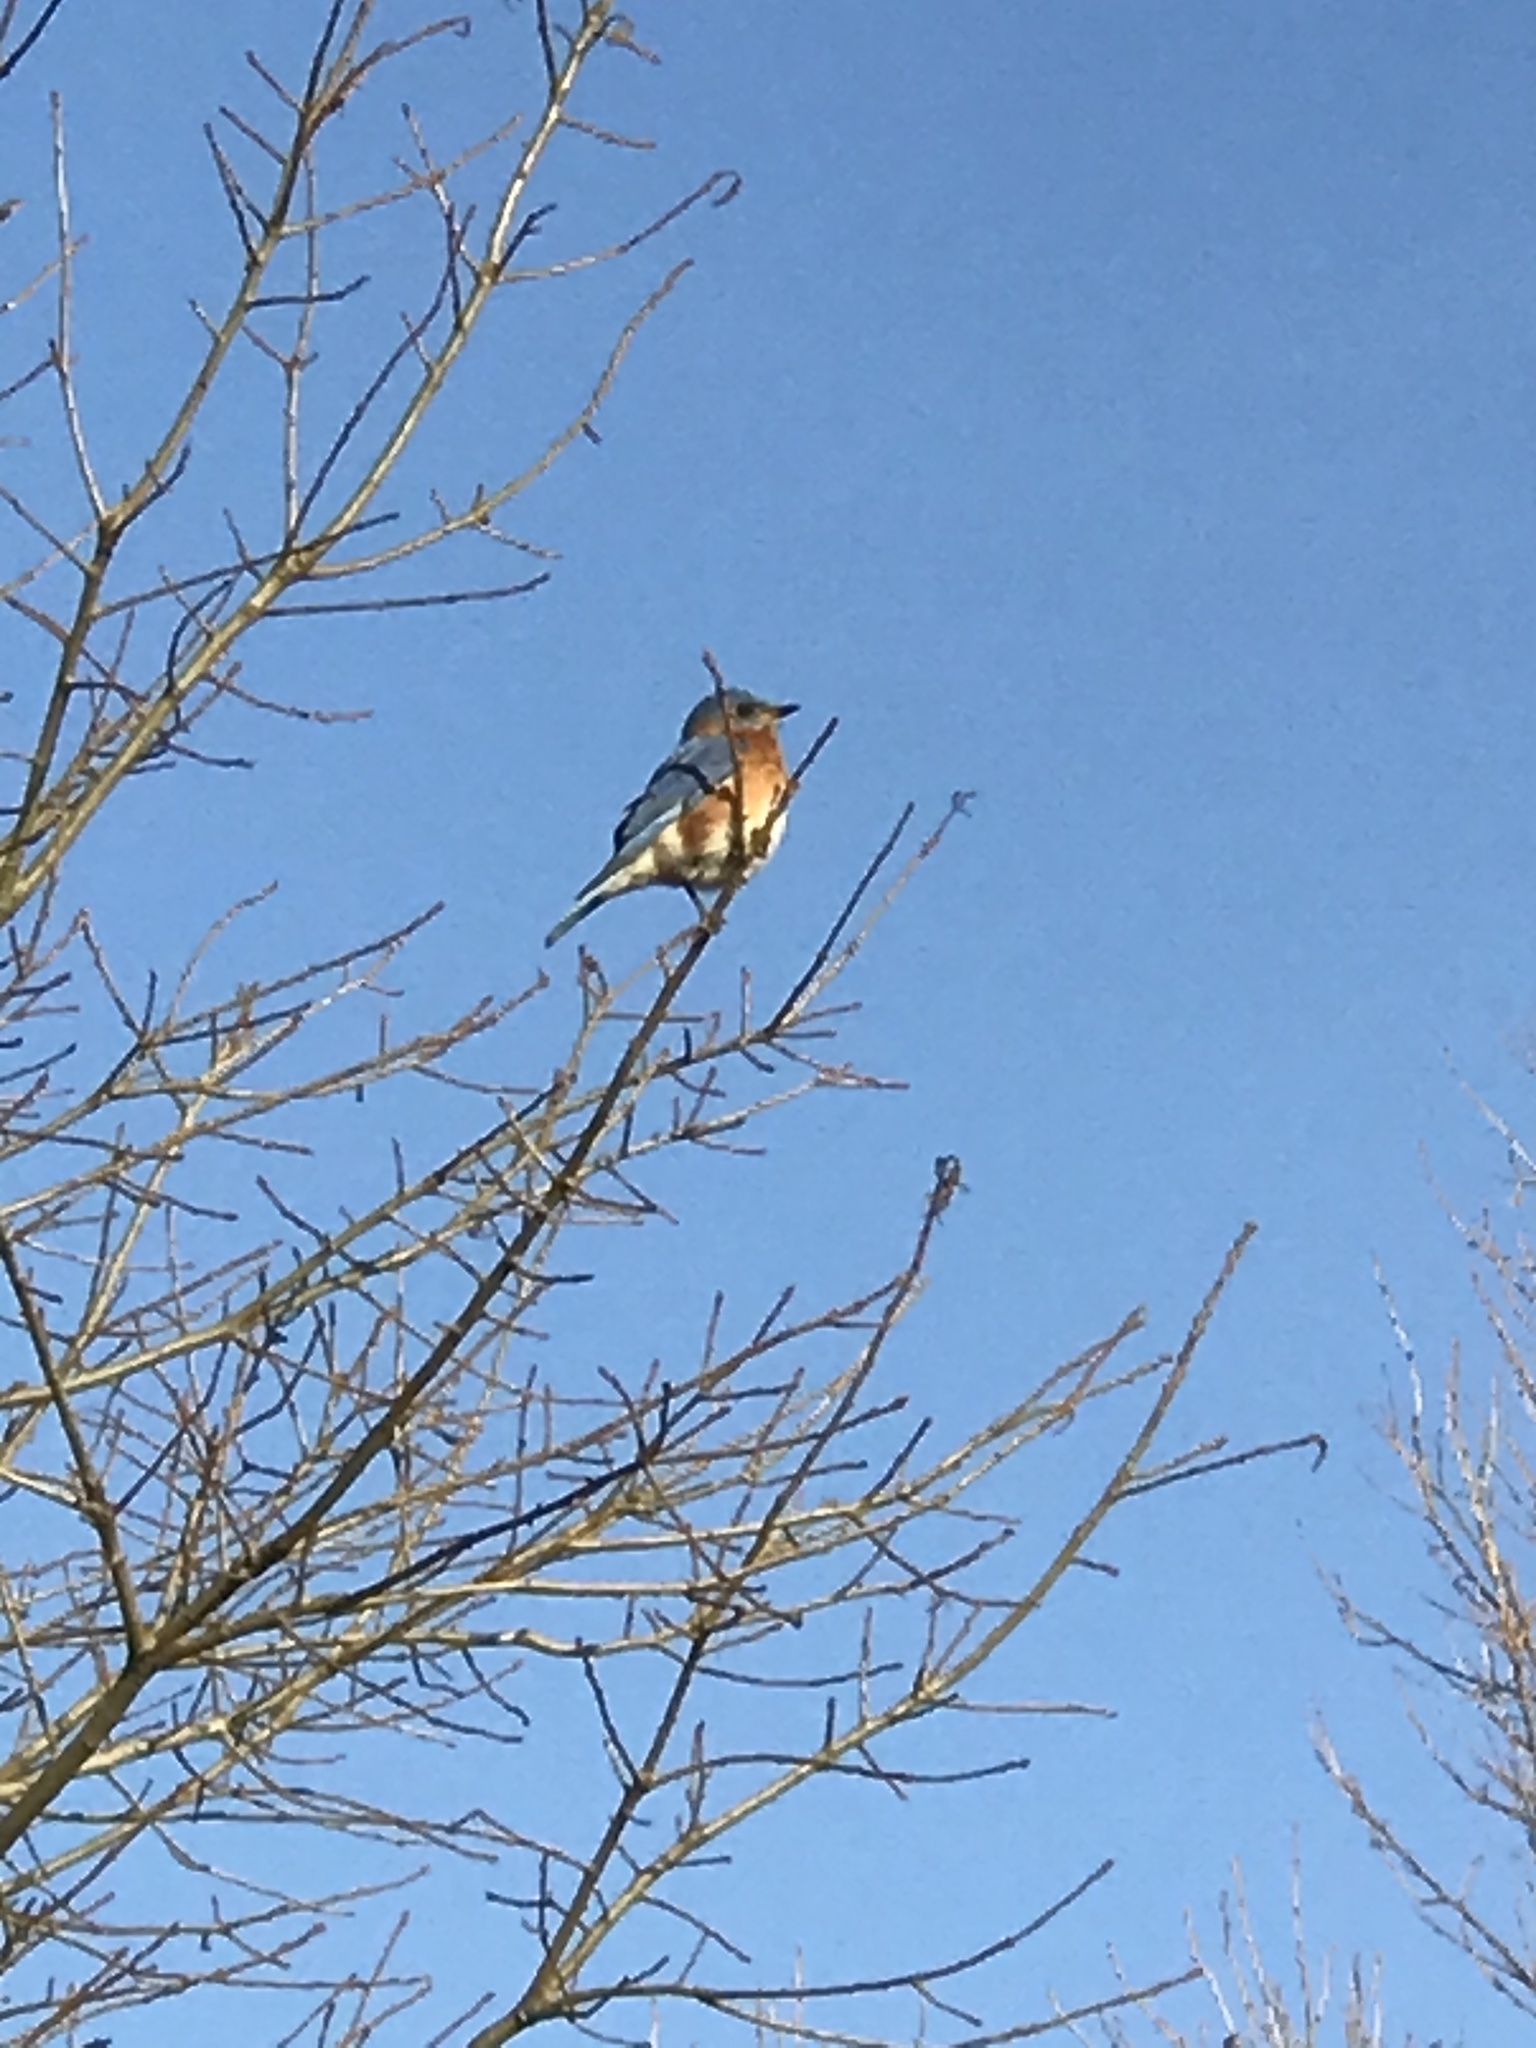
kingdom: Animalia
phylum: Chordata
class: Aves
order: Passeriformes
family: Turdidae
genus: Sialia
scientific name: Sialia sialis
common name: Eastern bluebird
